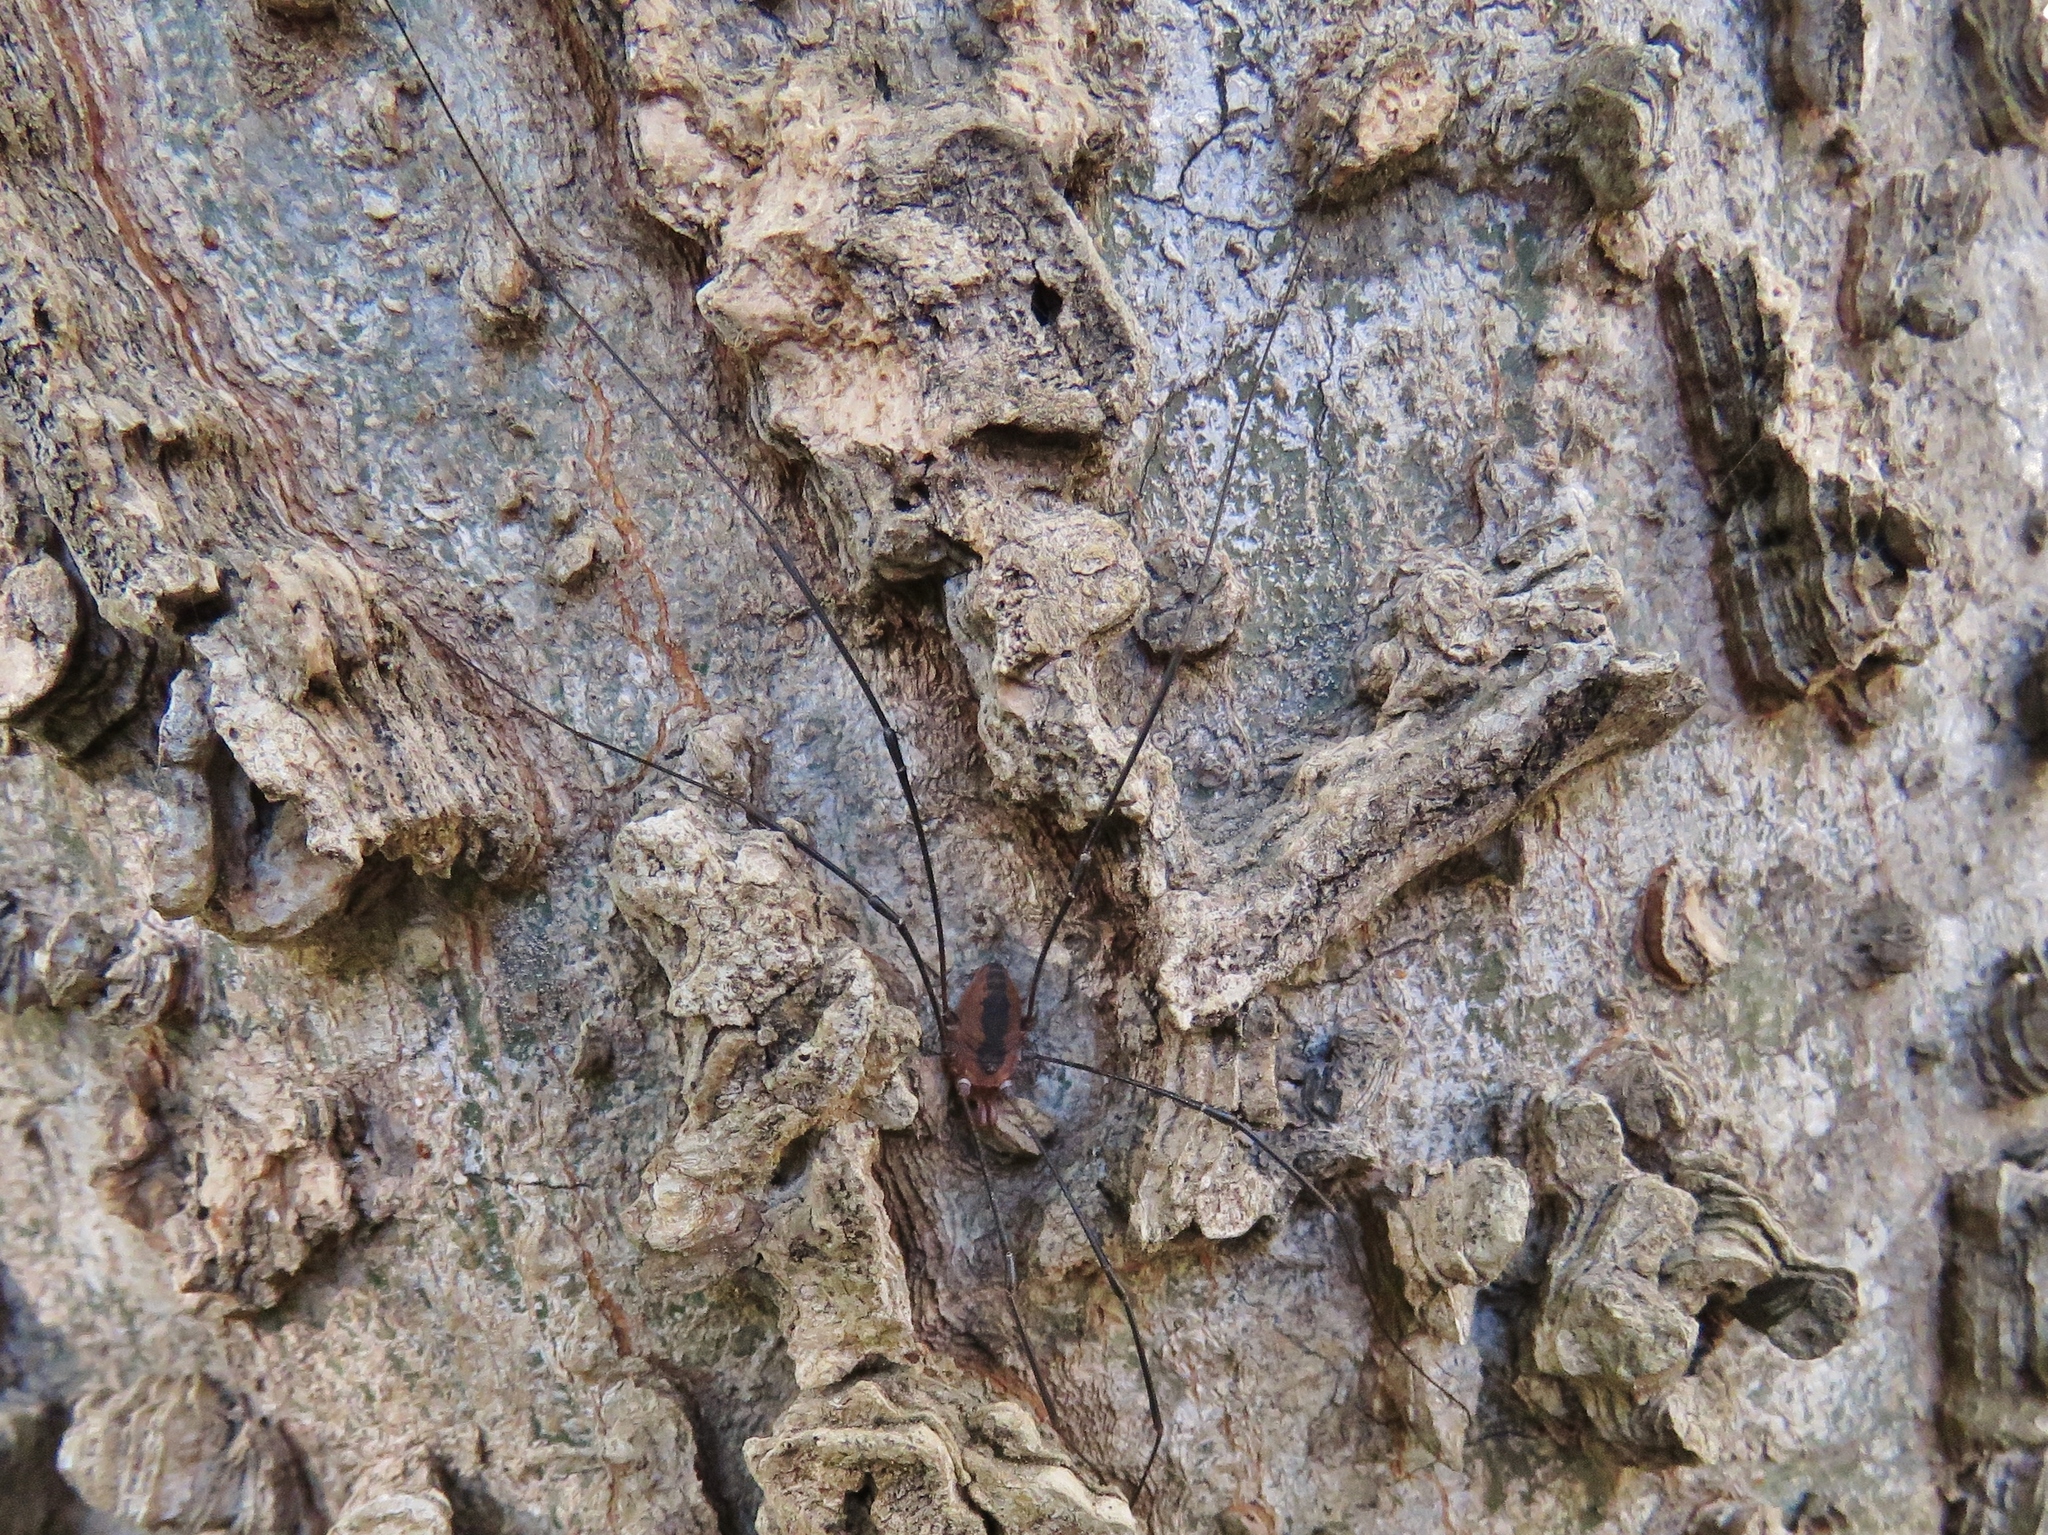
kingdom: Animalia
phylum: Arthropoda
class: Arachnida
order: Opiliones
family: Sclerosomatidae
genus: Leiobunum
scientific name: Leiobunum vittatum
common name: Eastern harvestman
